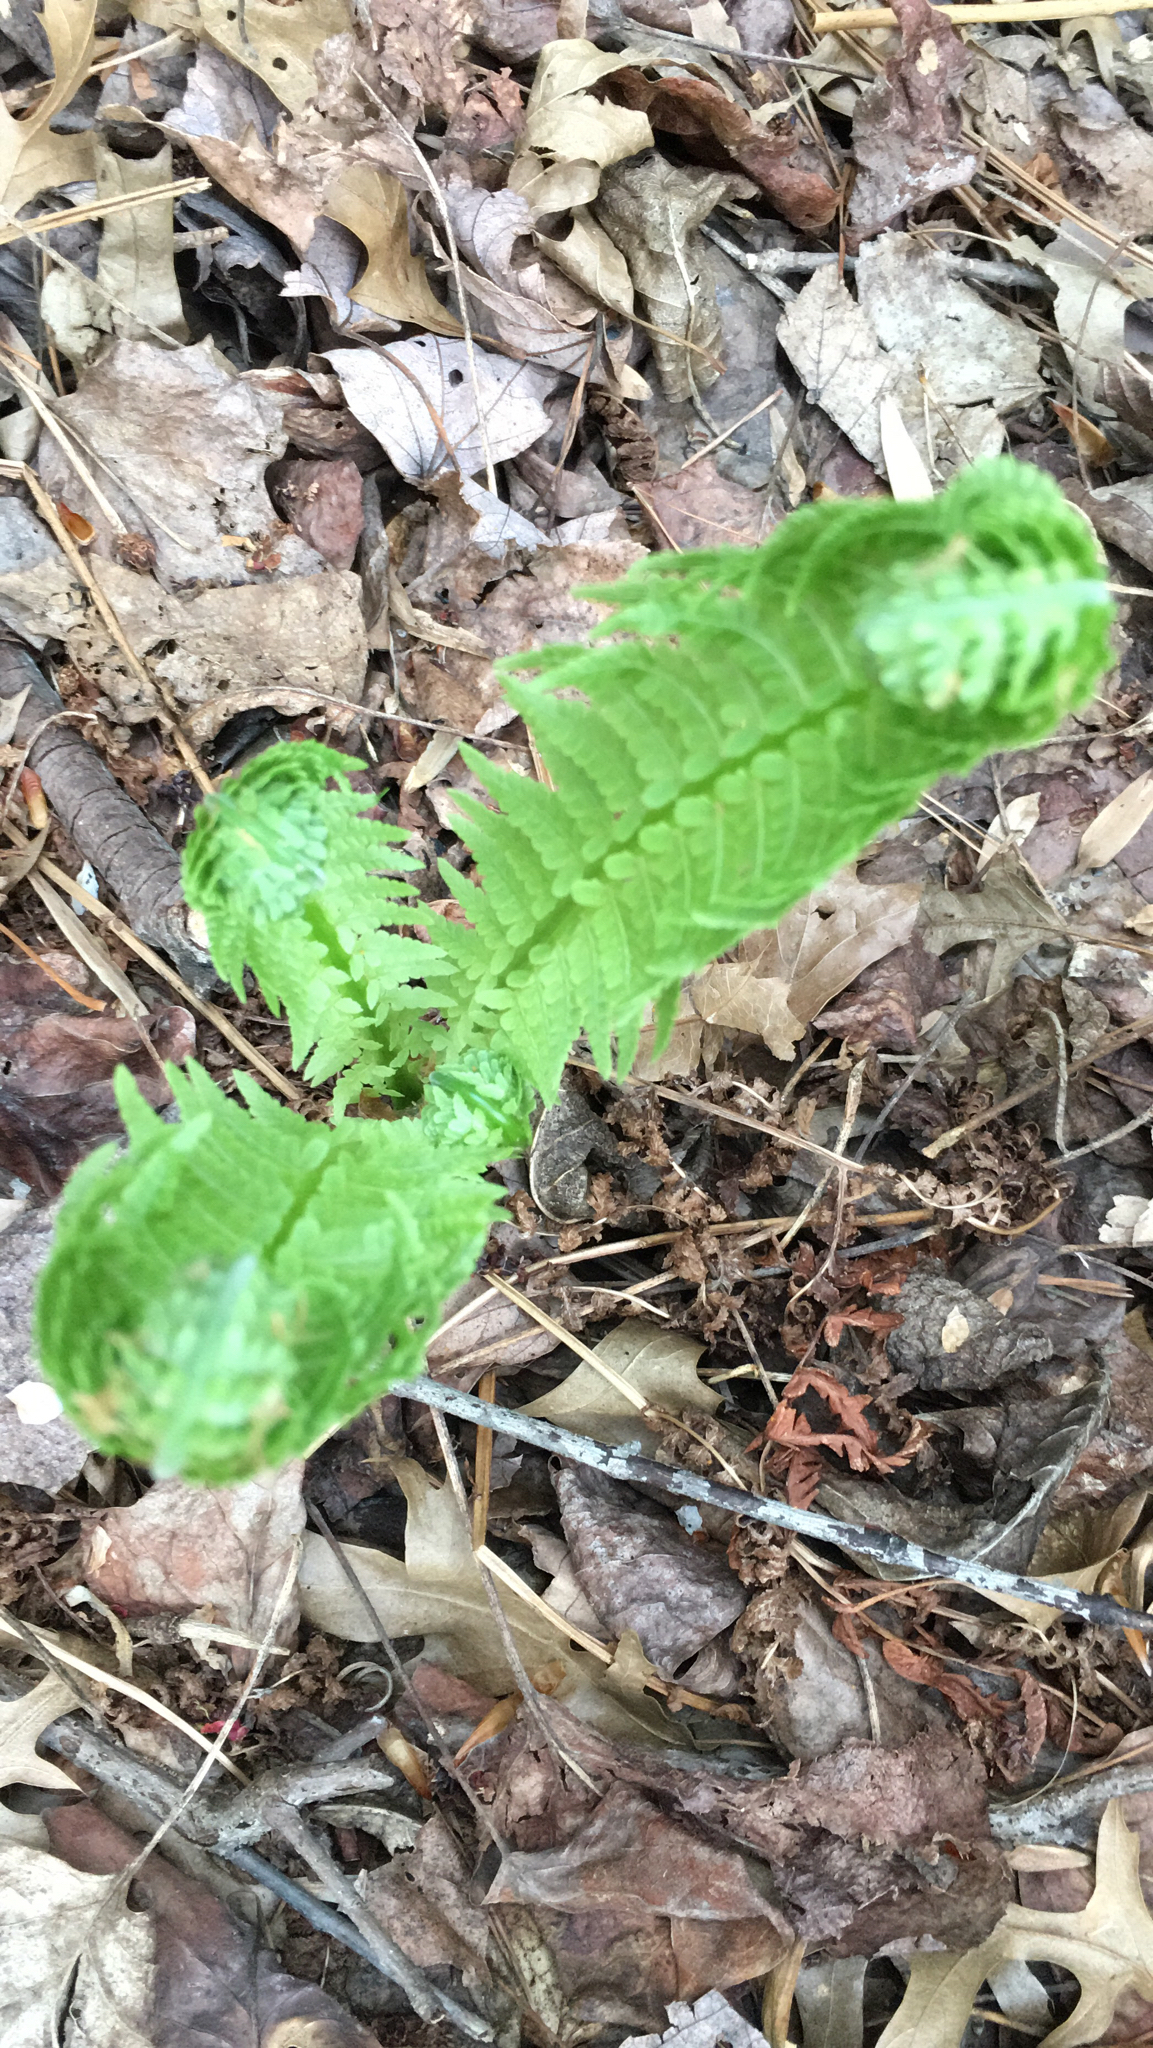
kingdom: Plantae
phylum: Tracheophyta
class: Polypodiopsida
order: Polypodiales
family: Onocleaceae
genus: Matteuccia
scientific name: Matteuccia struthiopteris
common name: Ostrich fern
